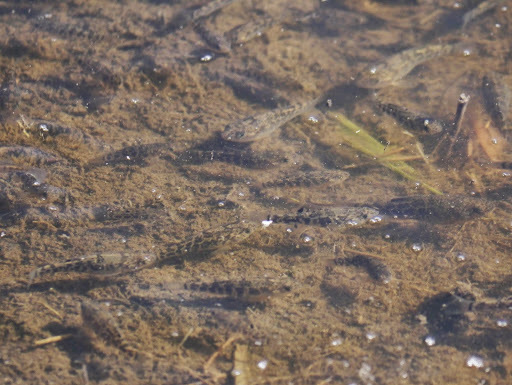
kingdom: Animalia
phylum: Chordata
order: Cyprinodontiformes
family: Cyprinodontidae
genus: Cyprinodon
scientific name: Cyprinodon variegatus
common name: Sheepshead minnow
